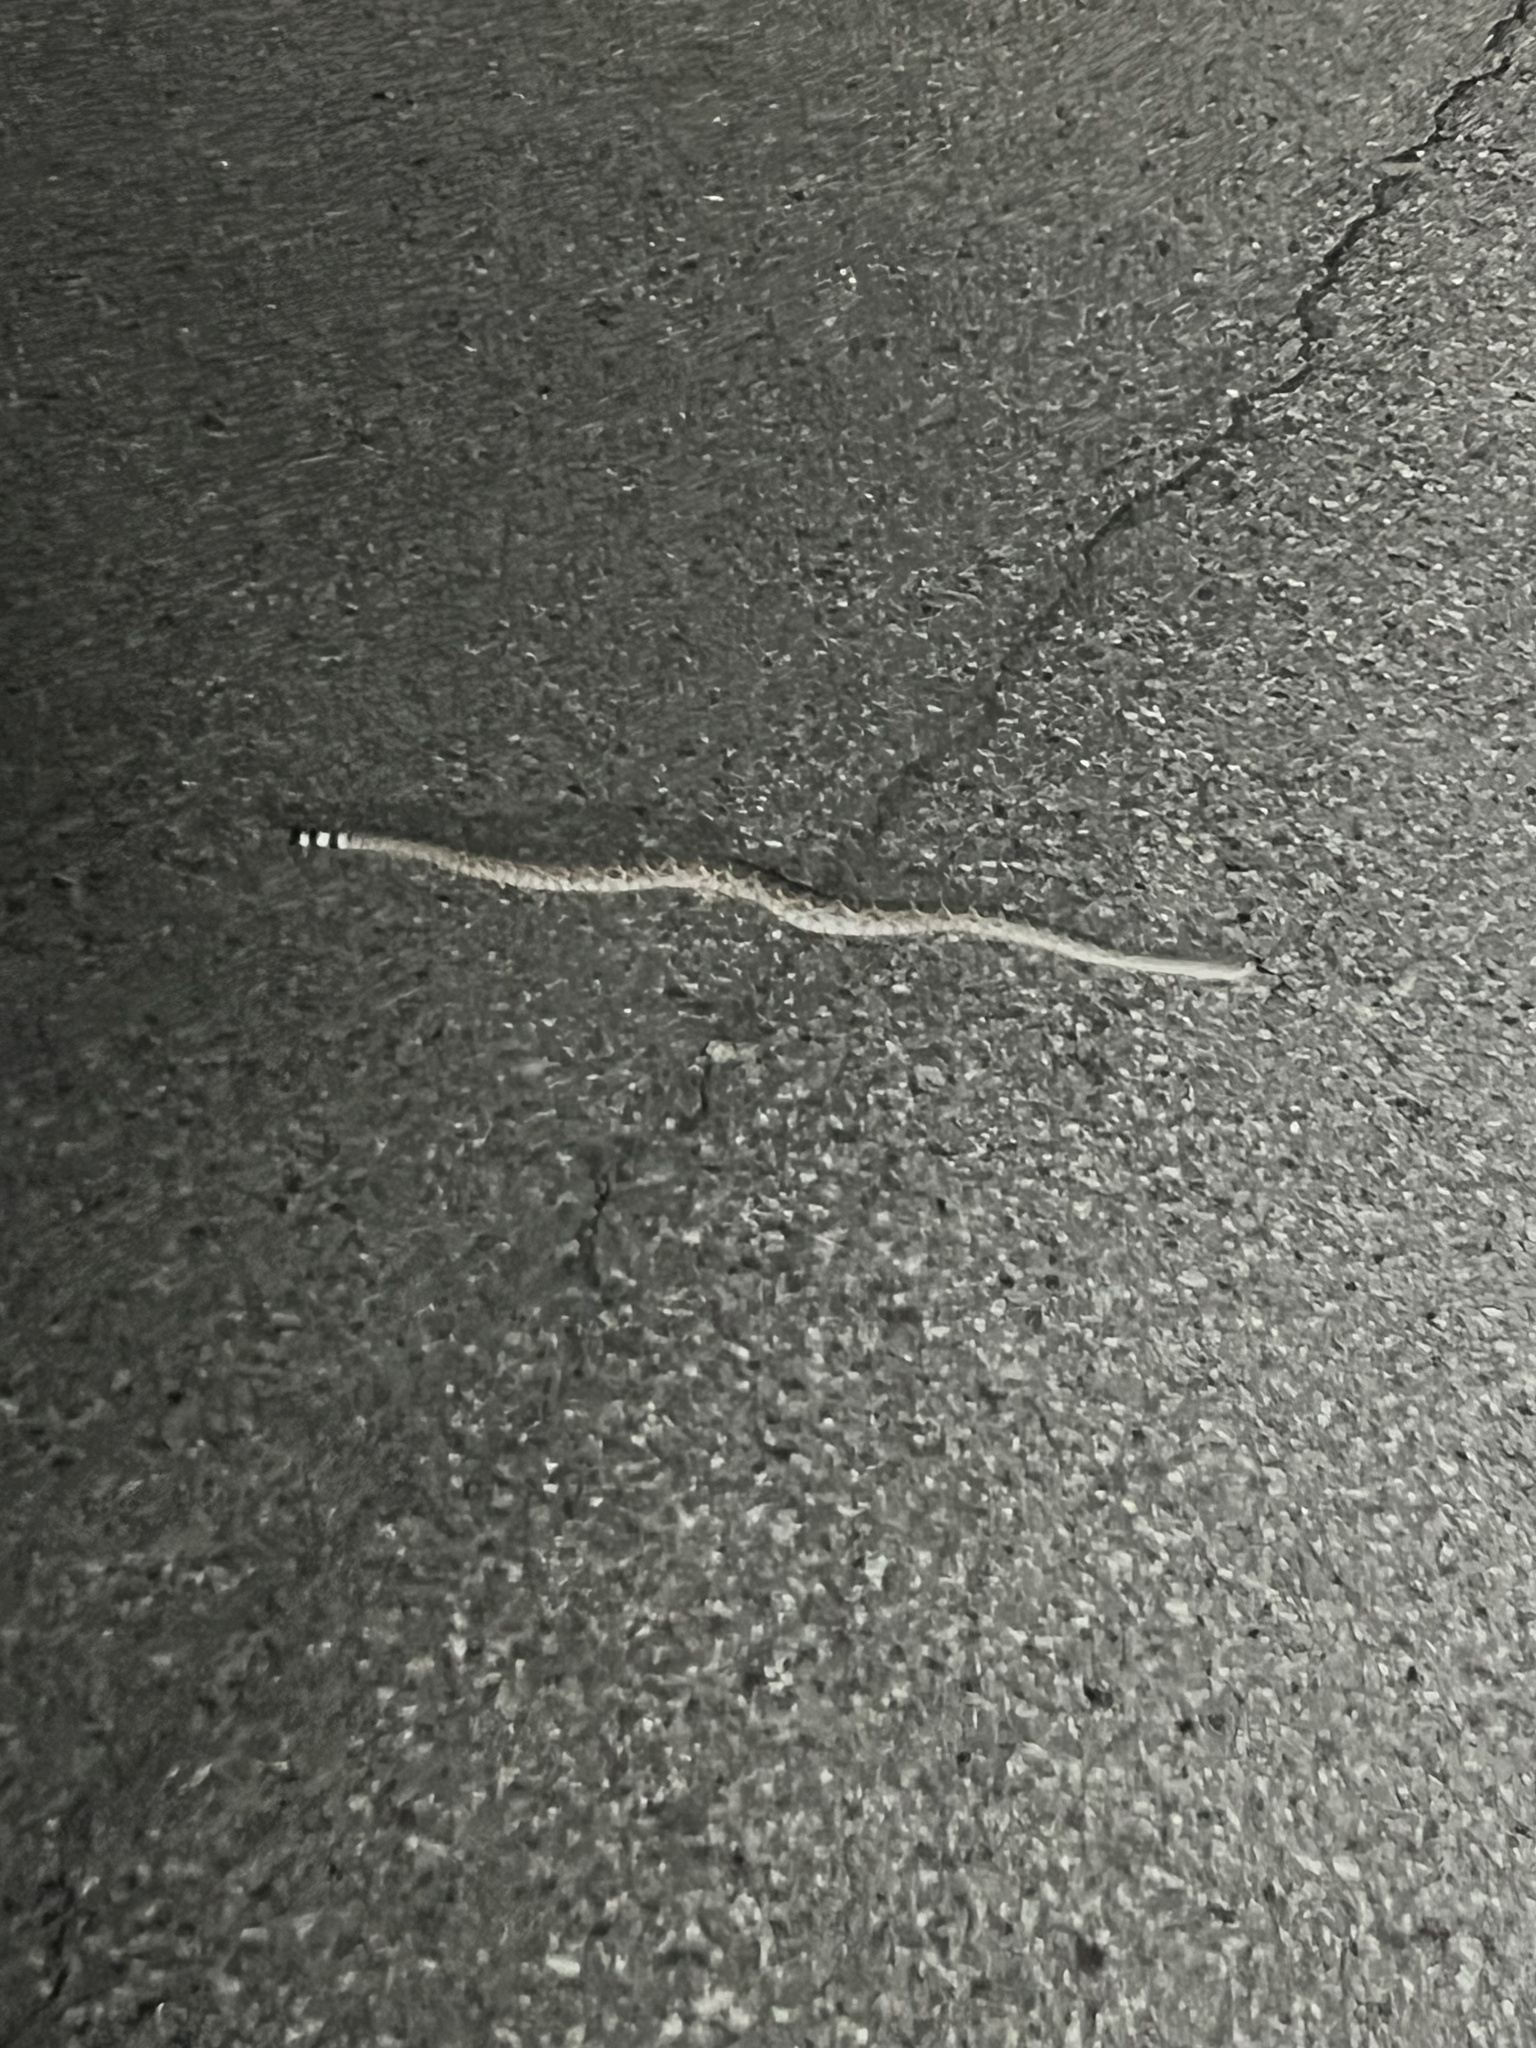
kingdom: Animalia
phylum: Chordata
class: Squamata
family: Viperidae
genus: Crotalus
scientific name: Crotalus atrox
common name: Western diamond-backed rattlesnake
